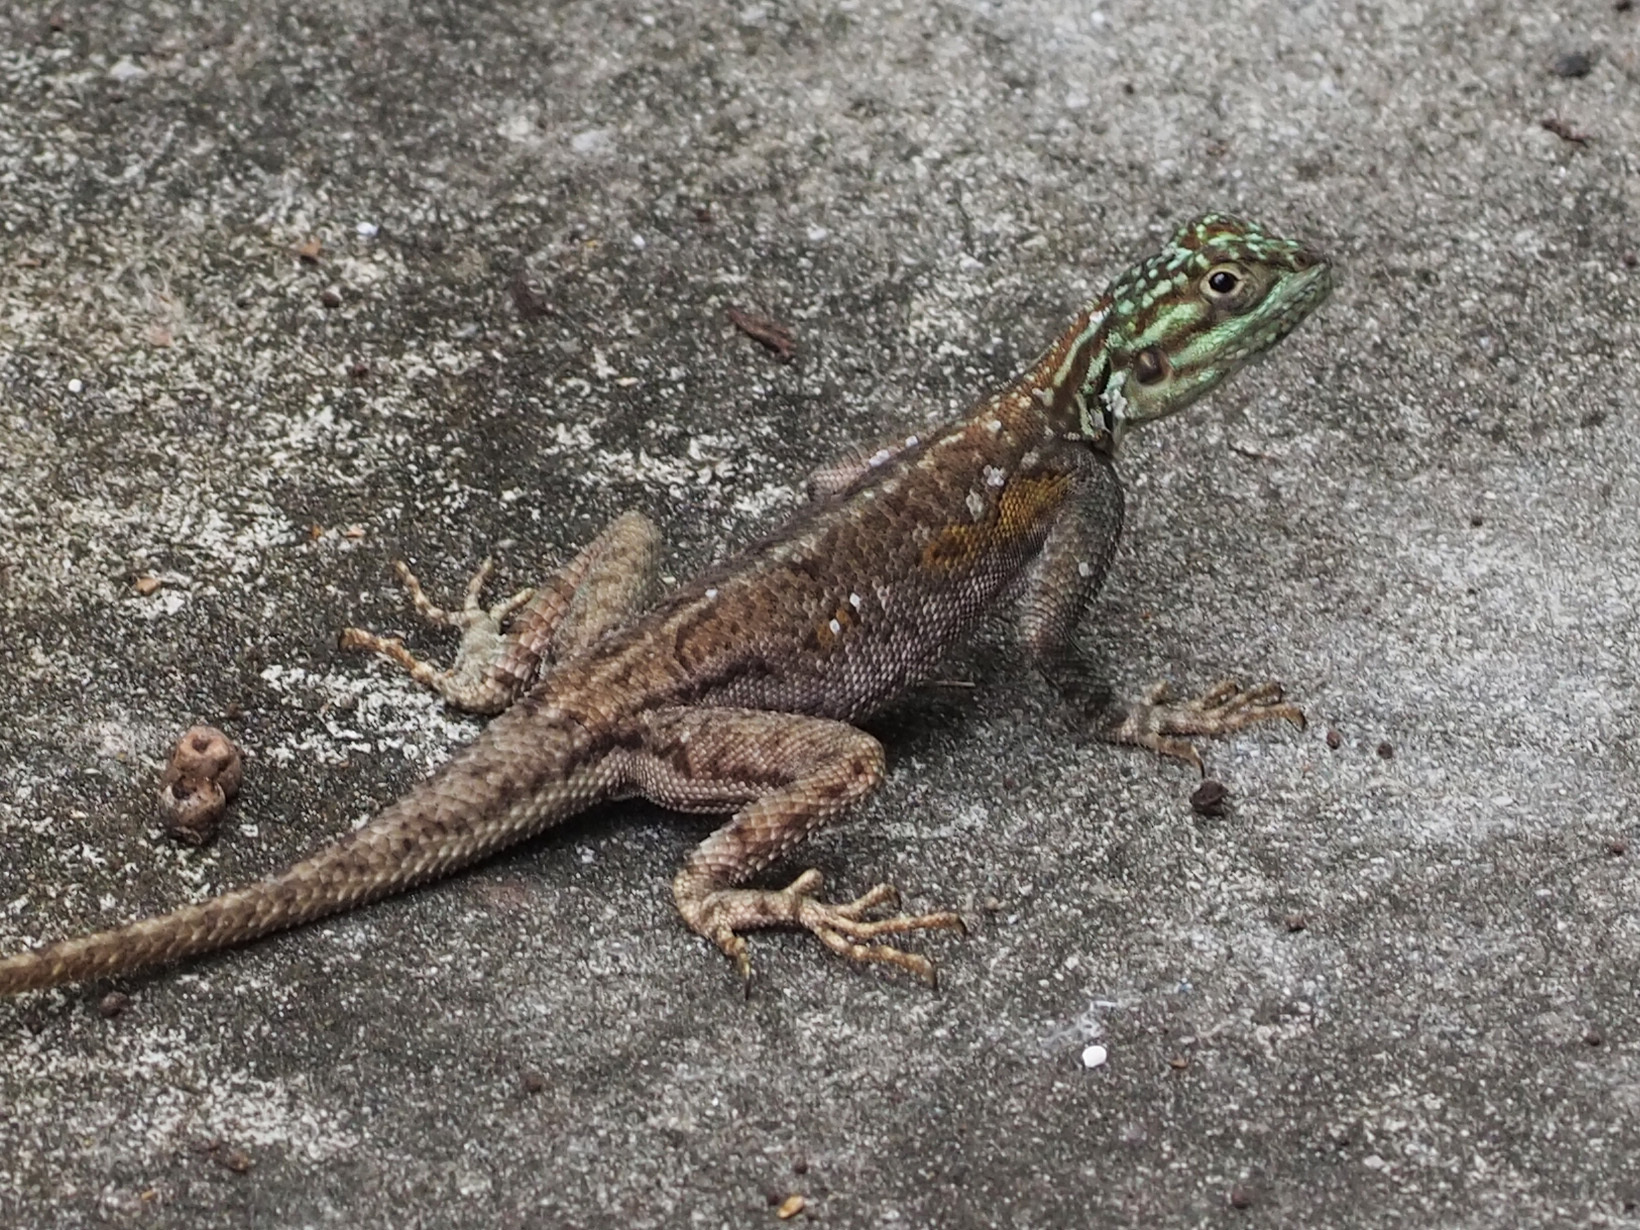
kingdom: Animalia
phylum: Chordata
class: Squamata
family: Agamidae
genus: Agama
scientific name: Agama picticauda
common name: Red-headed agama
